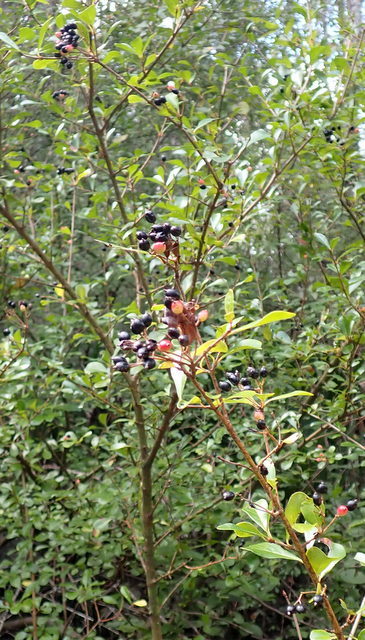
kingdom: Plantae
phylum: Tracheophyta
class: Magnoliopsida
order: Dipsacales
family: Viburnaceae
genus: Viburnum
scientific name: Viburnum obovatum
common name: Walter's viburnum
